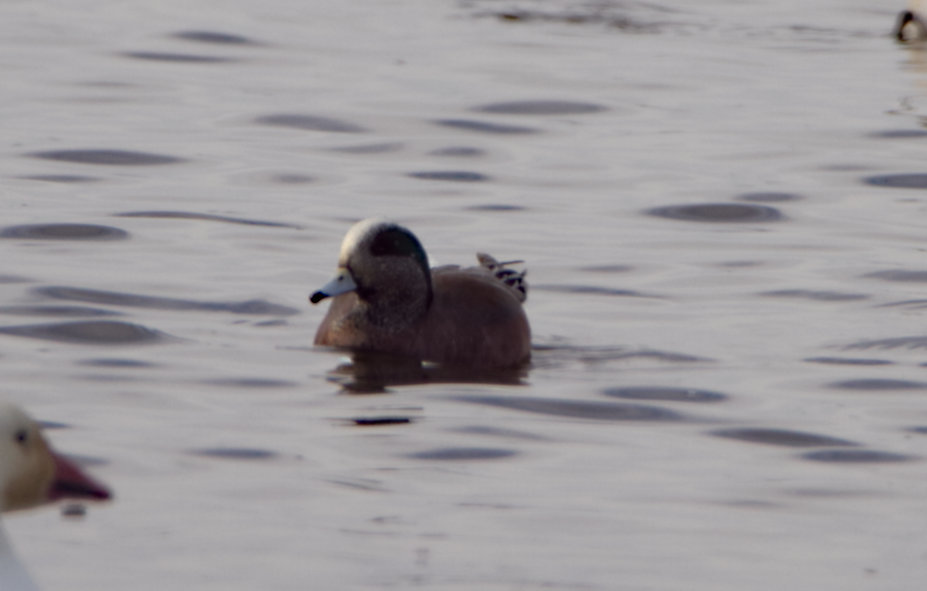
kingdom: Animalia
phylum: Chordata
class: Aves
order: Anseriformes
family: Anatidae
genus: Mareca
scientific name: Mareca americana
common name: American wigeon
